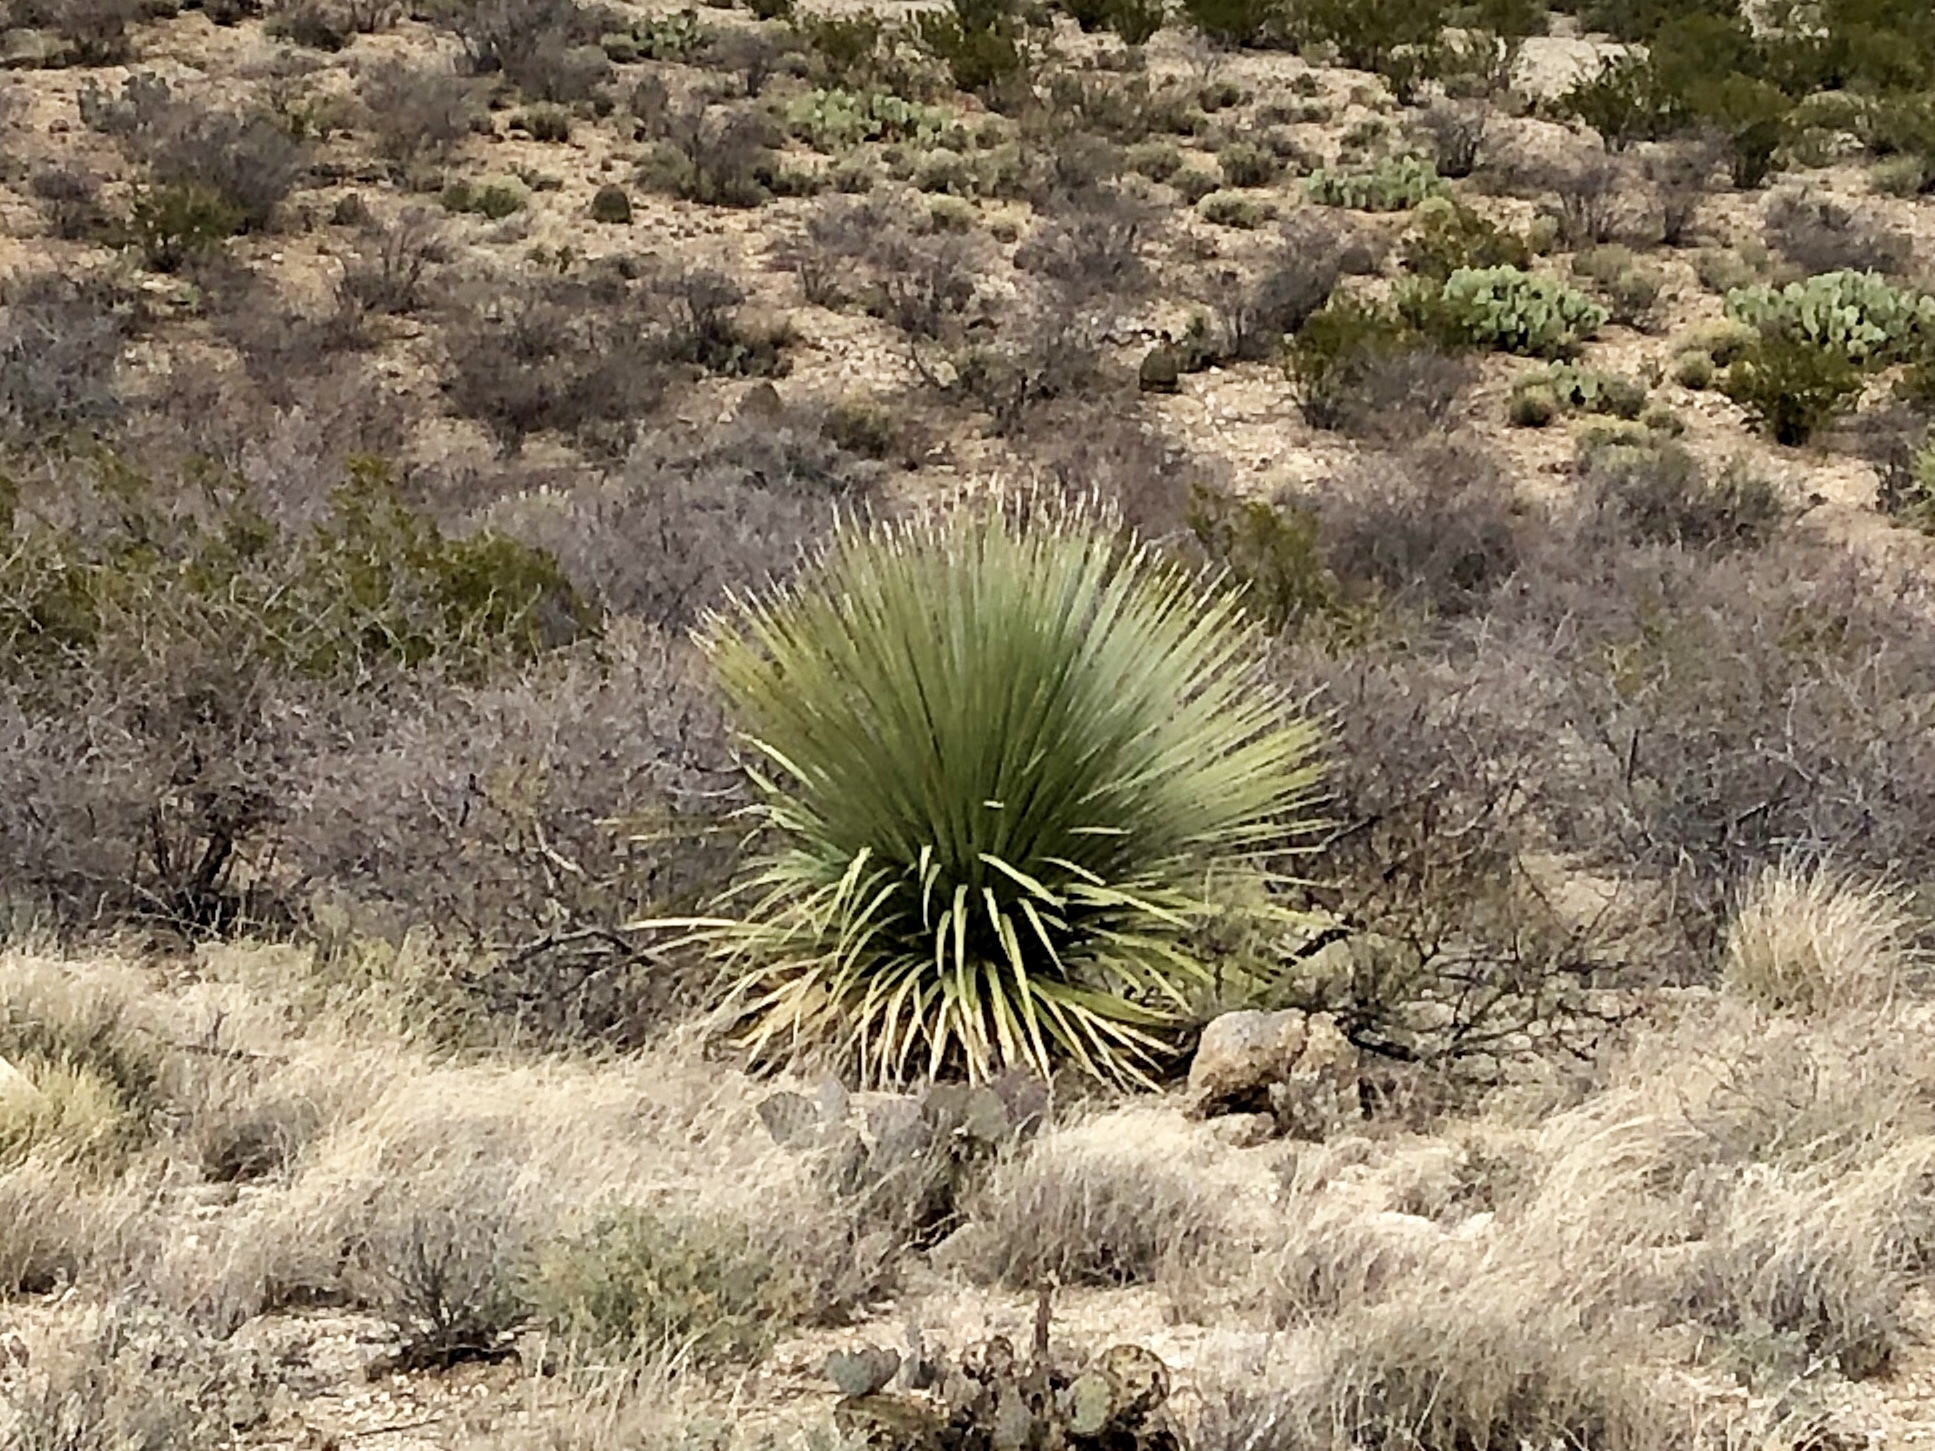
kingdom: Plantae
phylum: Tracheophyta
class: Liliopsida
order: Asparagales
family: Asparagaceae
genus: Dasylirion
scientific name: Dasylirion wheeleri
